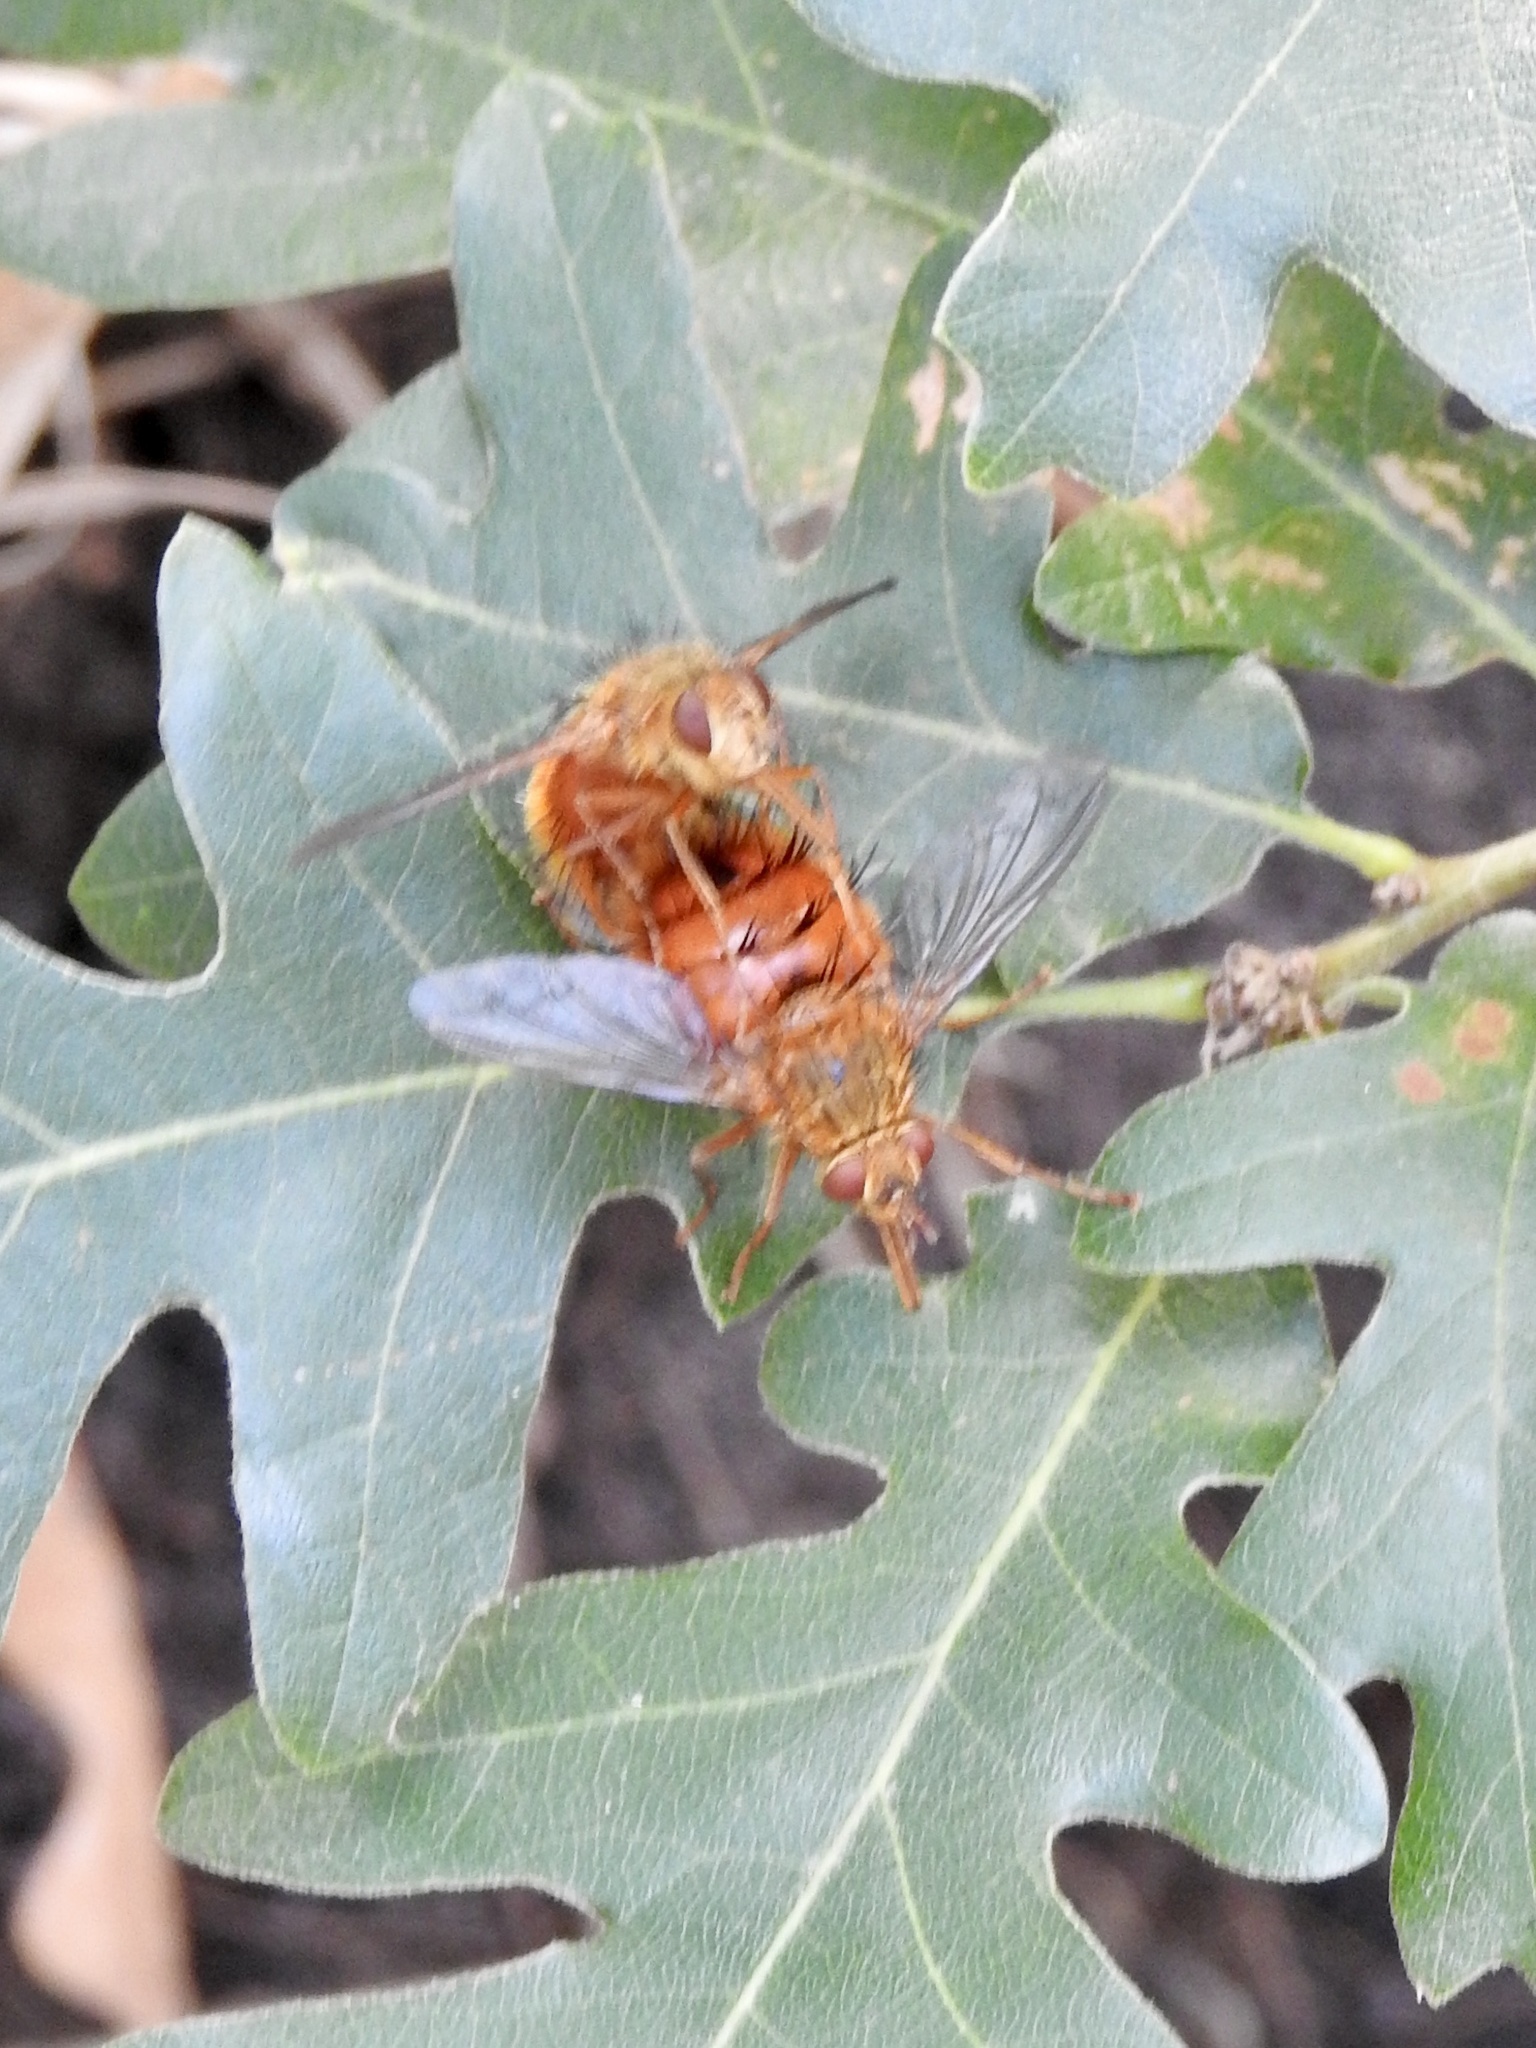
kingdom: Animalia
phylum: Arthropoda
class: Insecta
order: Diptera
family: Tachinidae
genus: Adejeania
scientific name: Adejeania vexatrix
